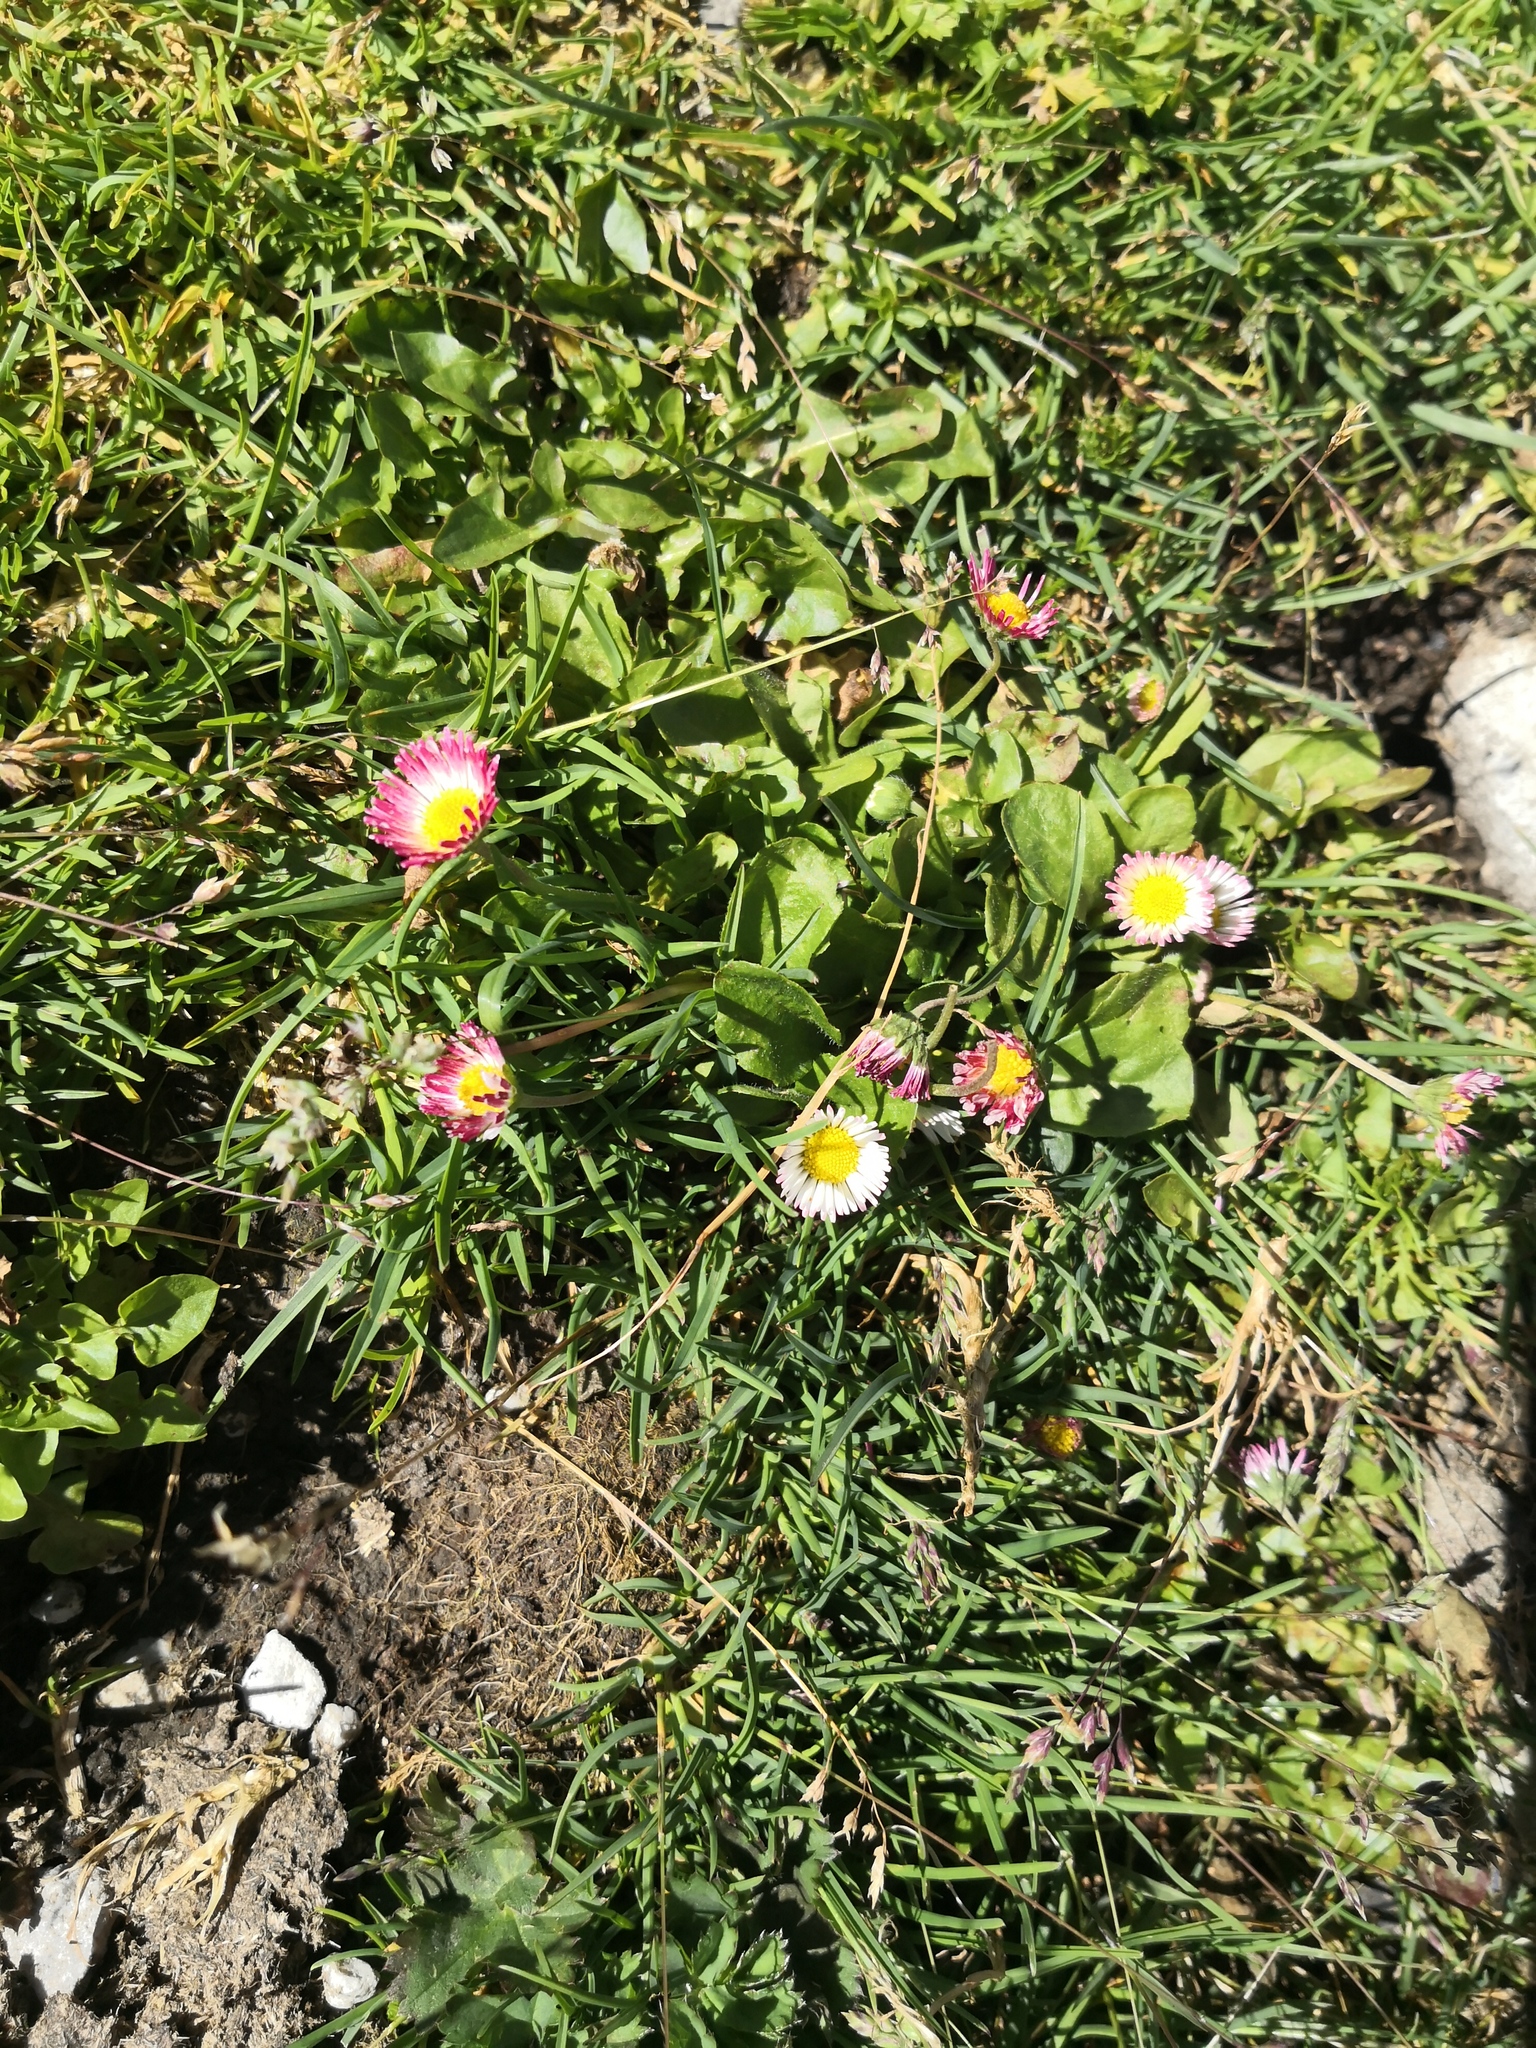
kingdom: Plantae
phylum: Tracheophyta
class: Magnoliopsida
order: Asterales
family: Asteraceae
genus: Bellis
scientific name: Bellis perennis
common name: Lawndaisy
